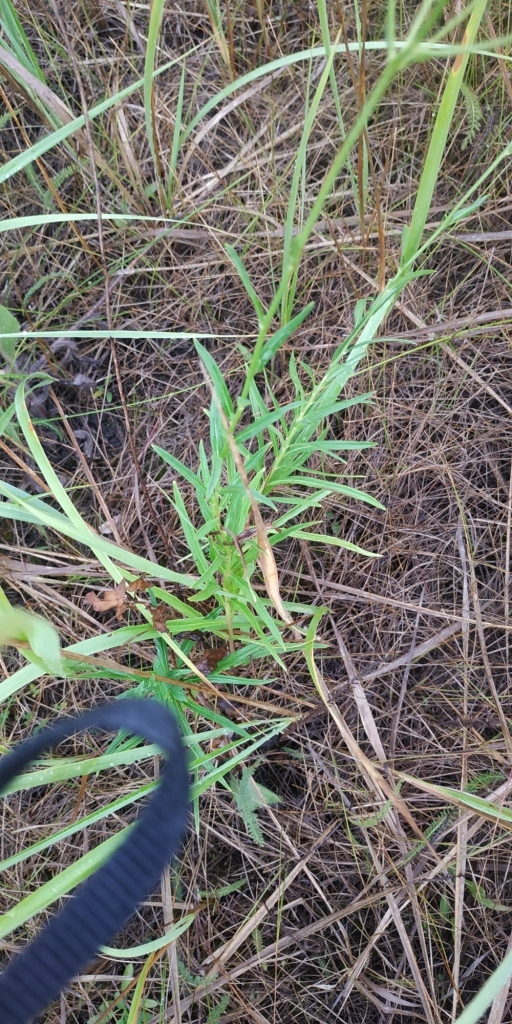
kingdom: Plantae
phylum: Tracheophyta
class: Magnoliopsida
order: Asterales
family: Asteraceae
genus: Hieracium
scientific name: Hieracium umbellatum
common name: Northern hawkweed
